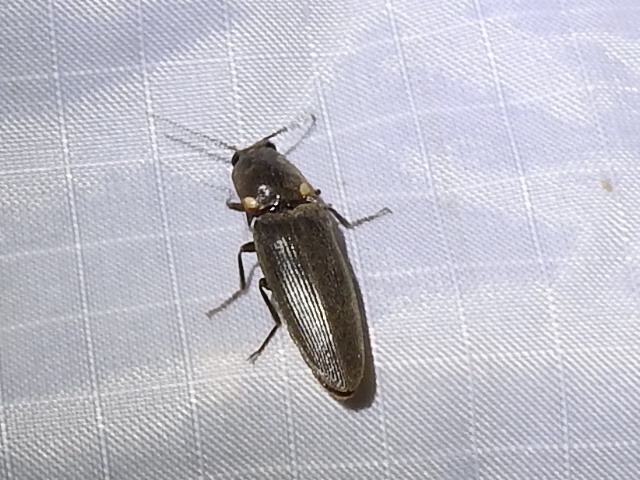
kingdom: Animalia
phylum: Arthropoda
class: Insecta
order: Coleoptera
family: Elateridae
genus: Deilelater
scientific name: Deilelater
